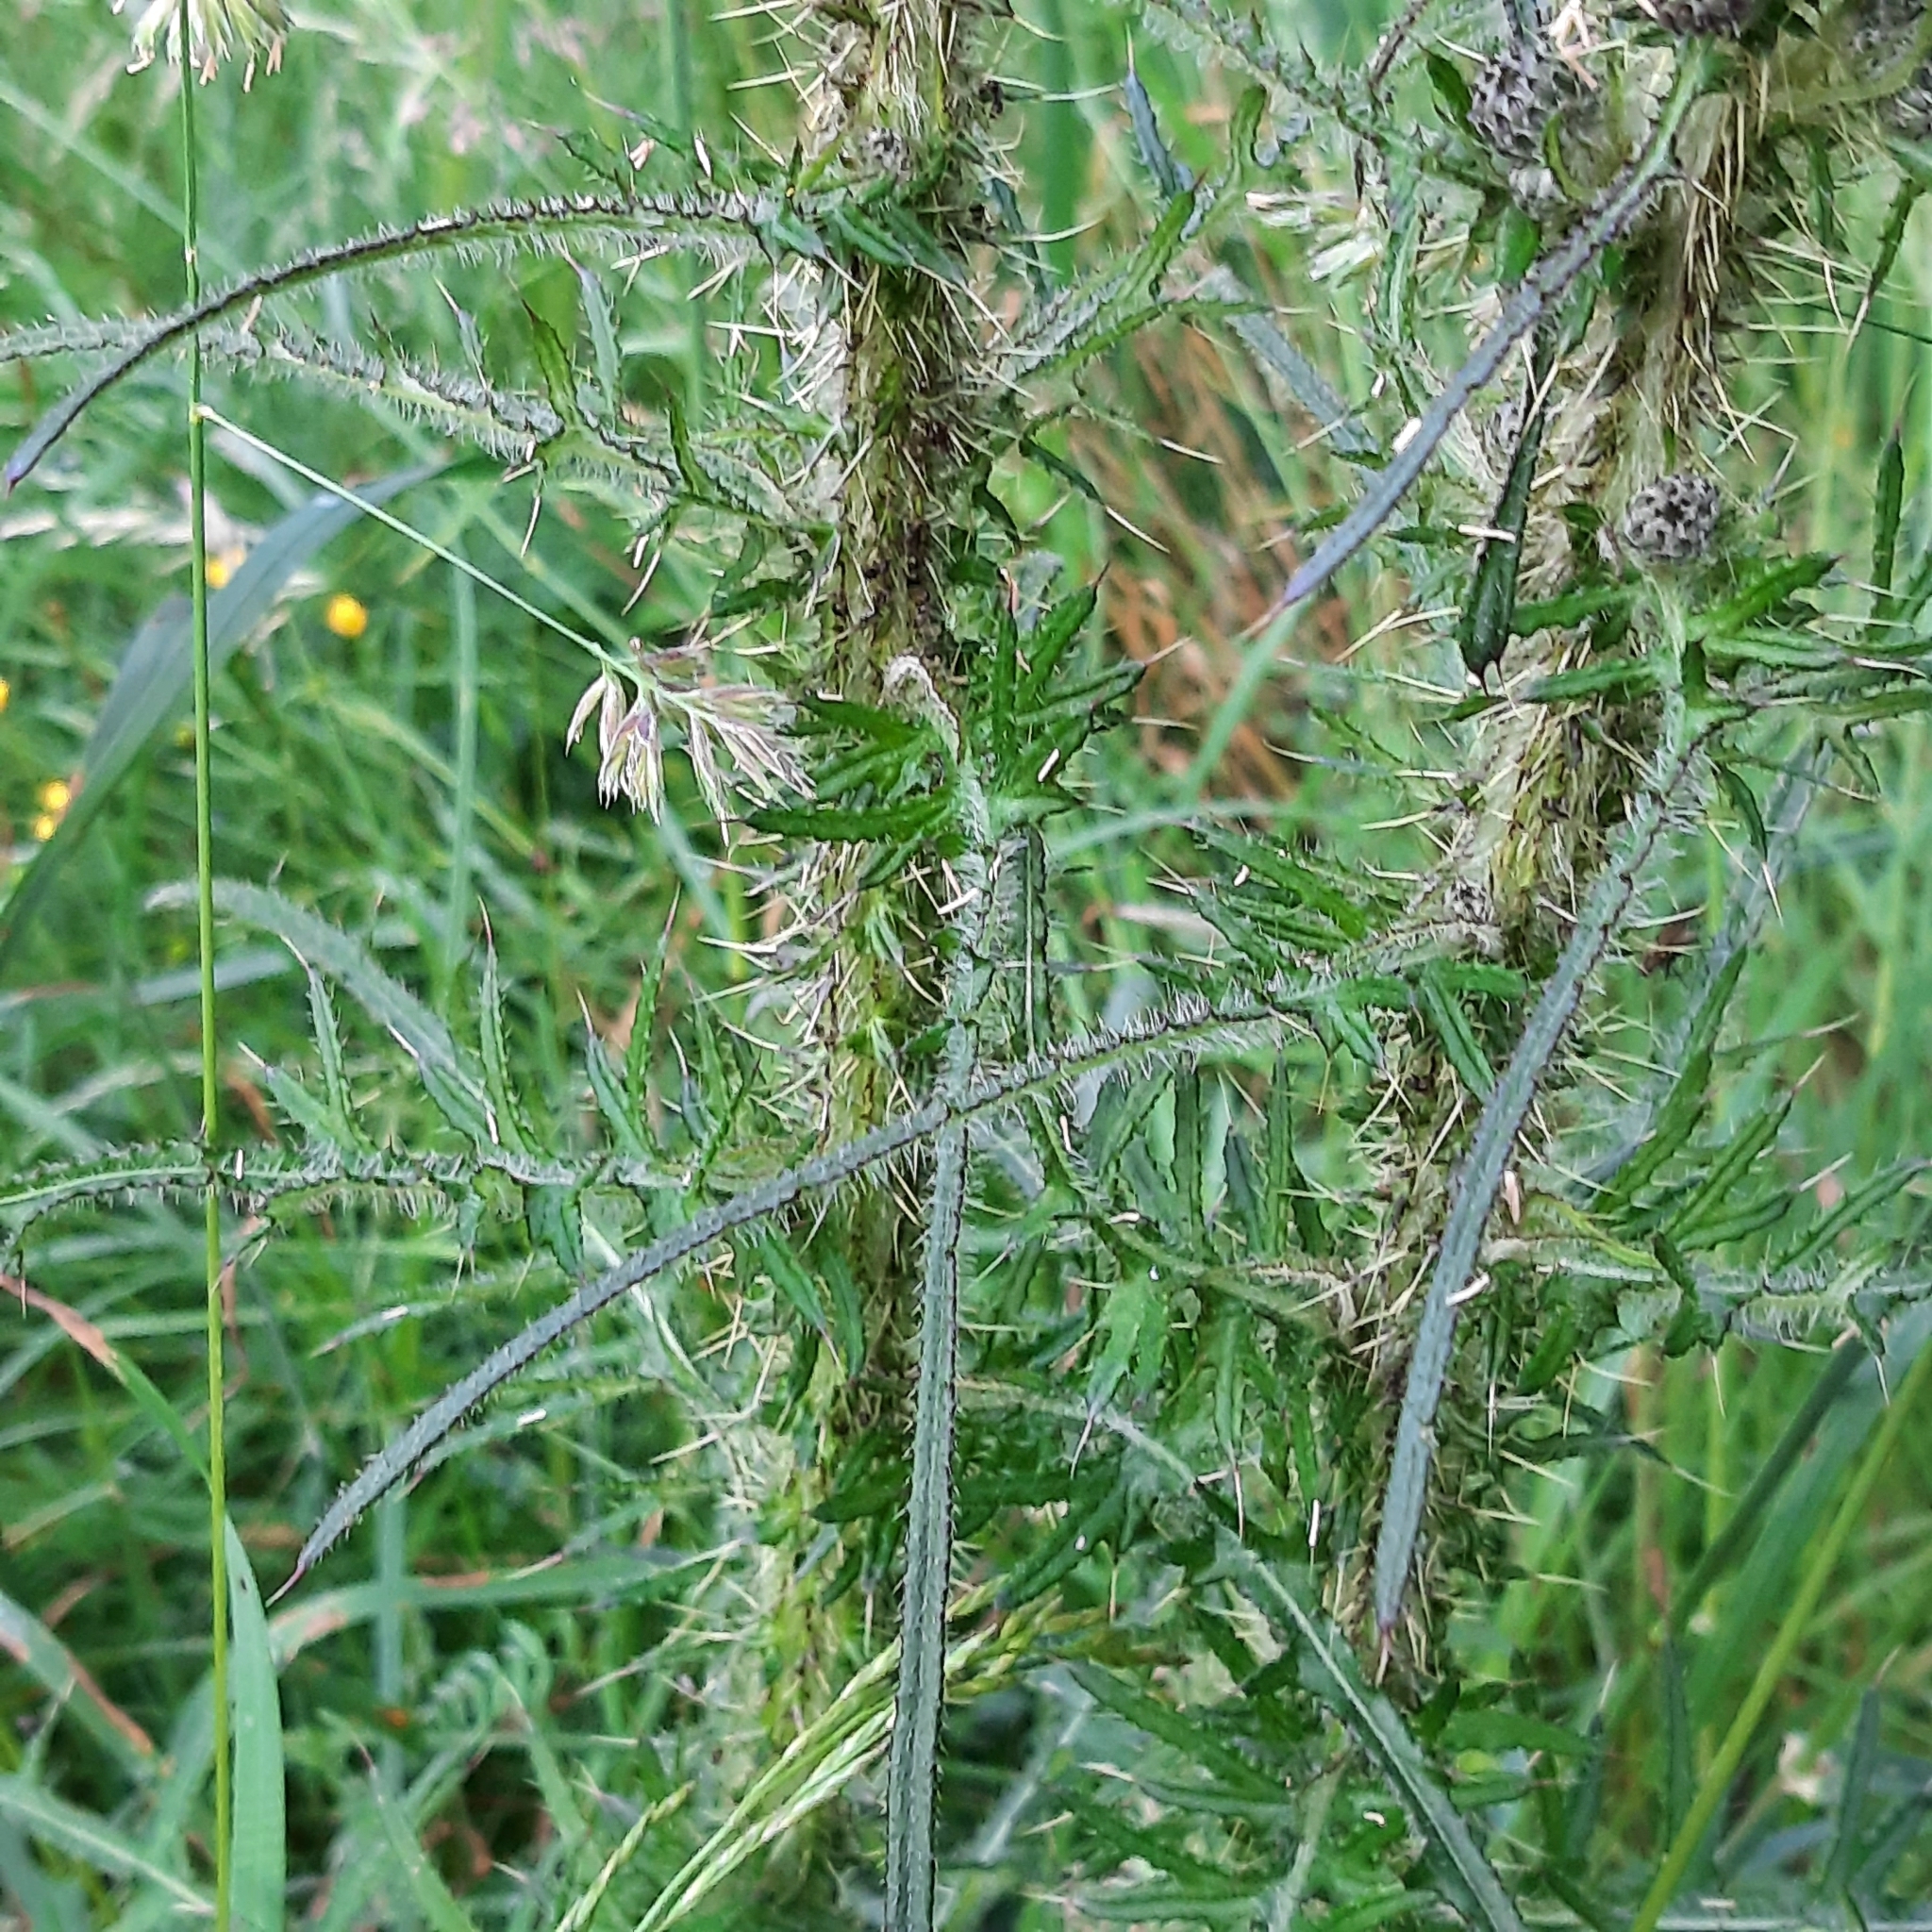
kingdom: Plantae
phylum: Tracheophyta
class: Magnoliopsida
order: Asterales
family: Asteraceae
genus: Cirsium
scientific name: Cirsium palustre
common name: Marsh thistle
